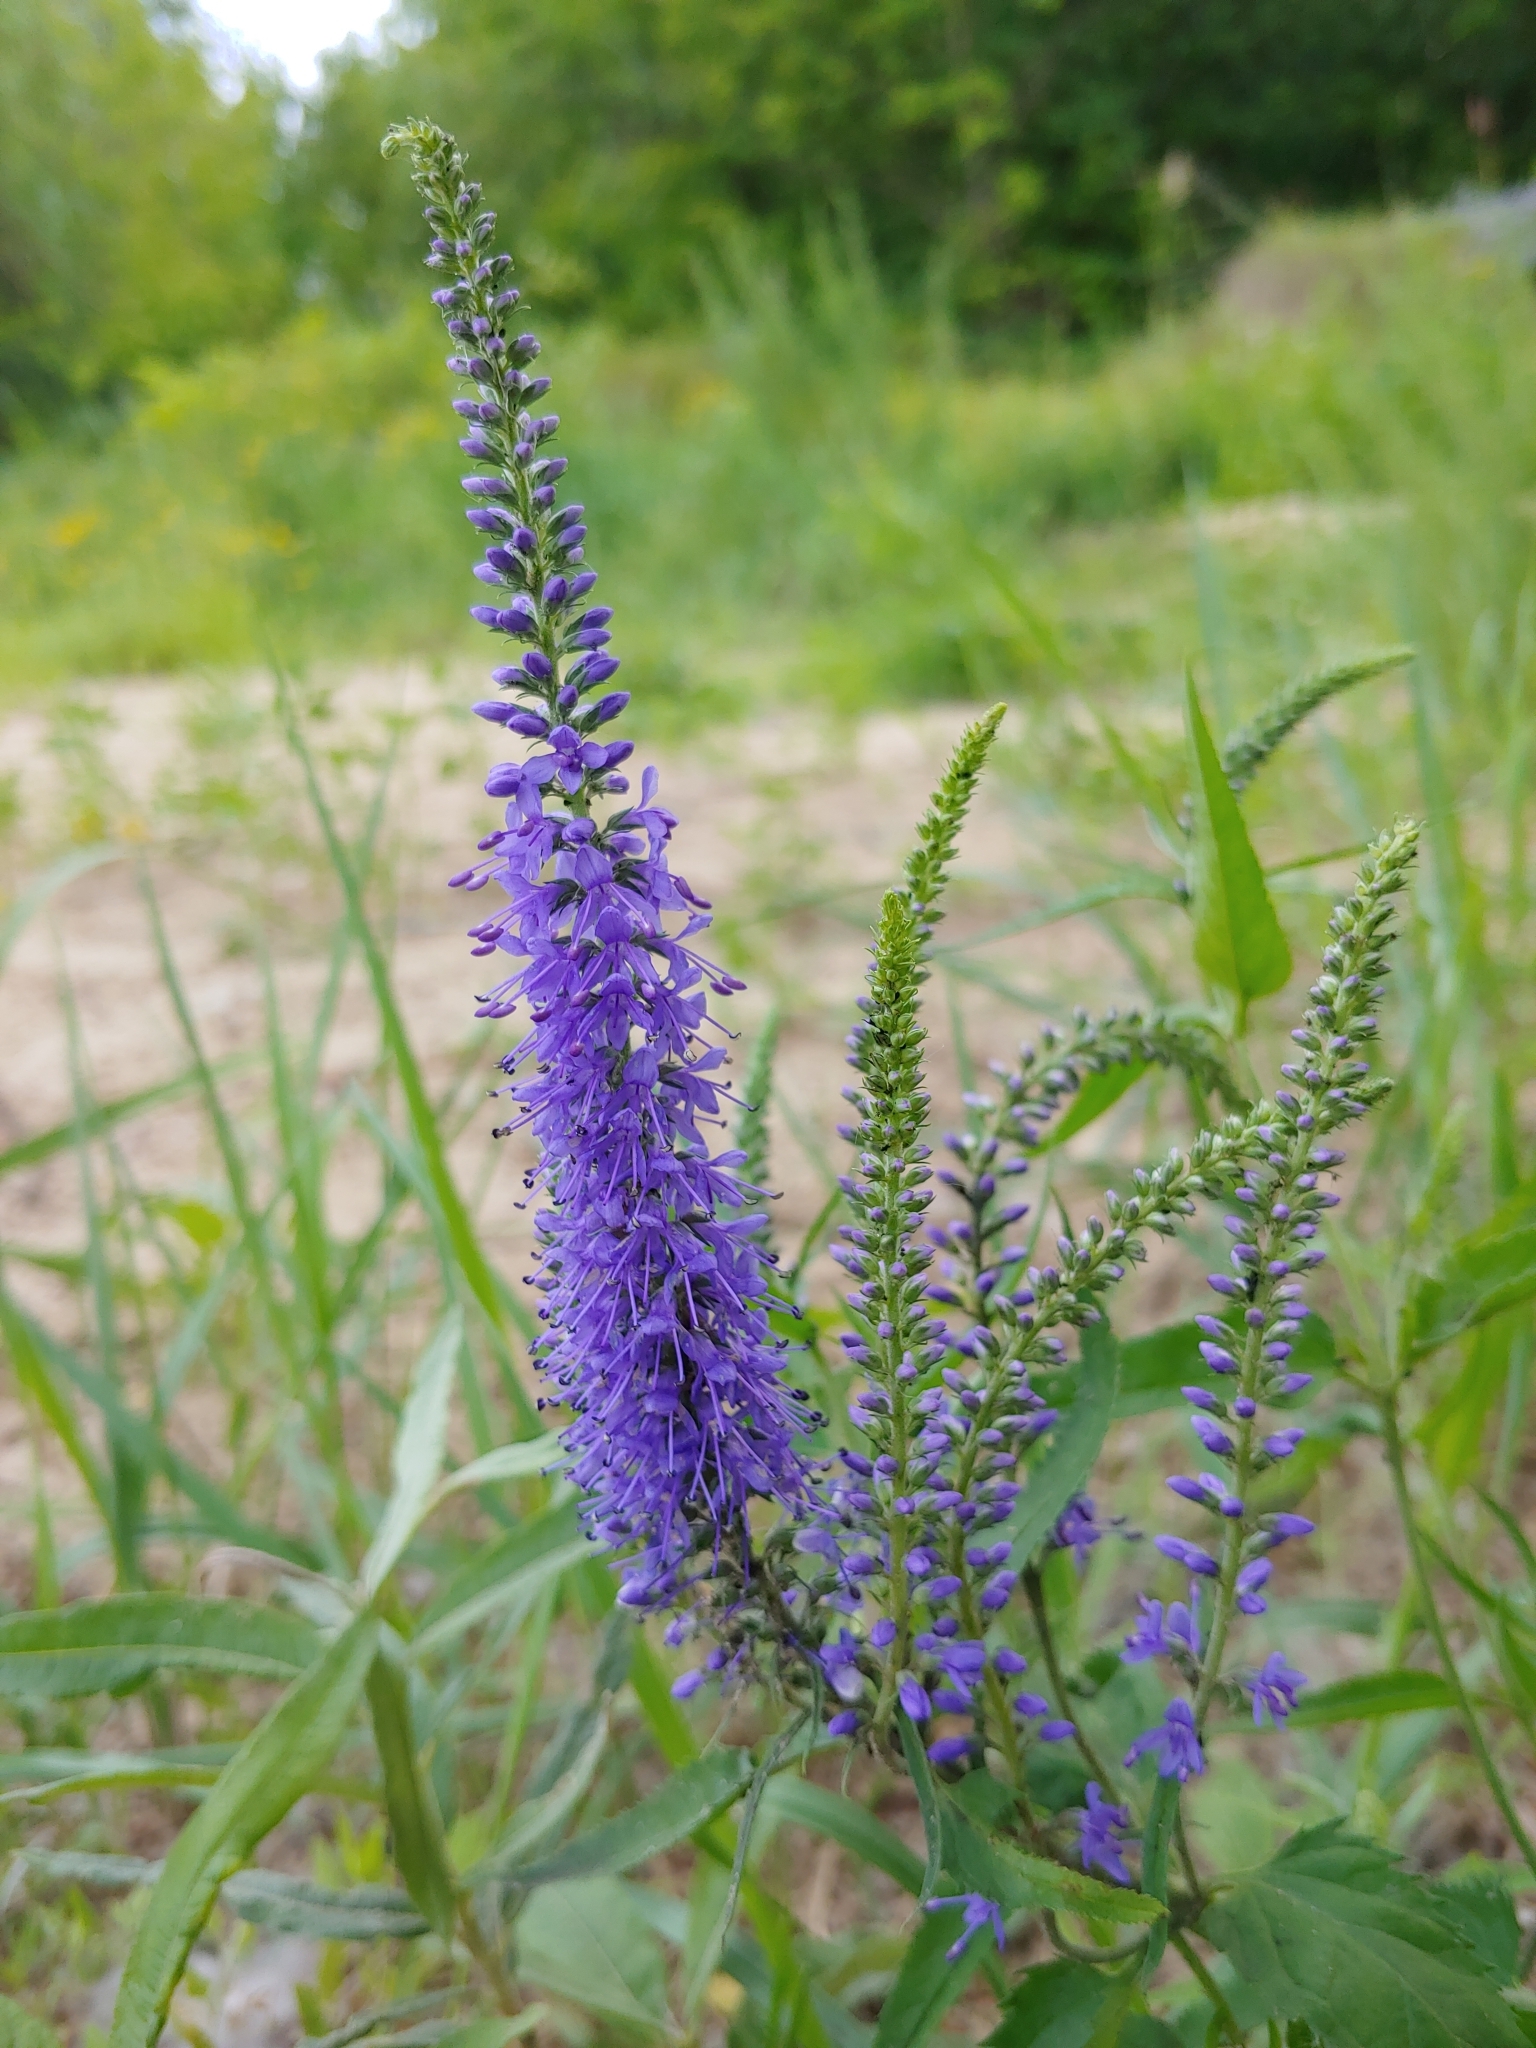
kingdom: Plantae
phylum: Tracheophyta
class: Magnoliopsida
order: Lamiales
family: Plantaginaceae
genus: Veronica
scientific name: Veronica longifolia
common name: Garden speedwell
